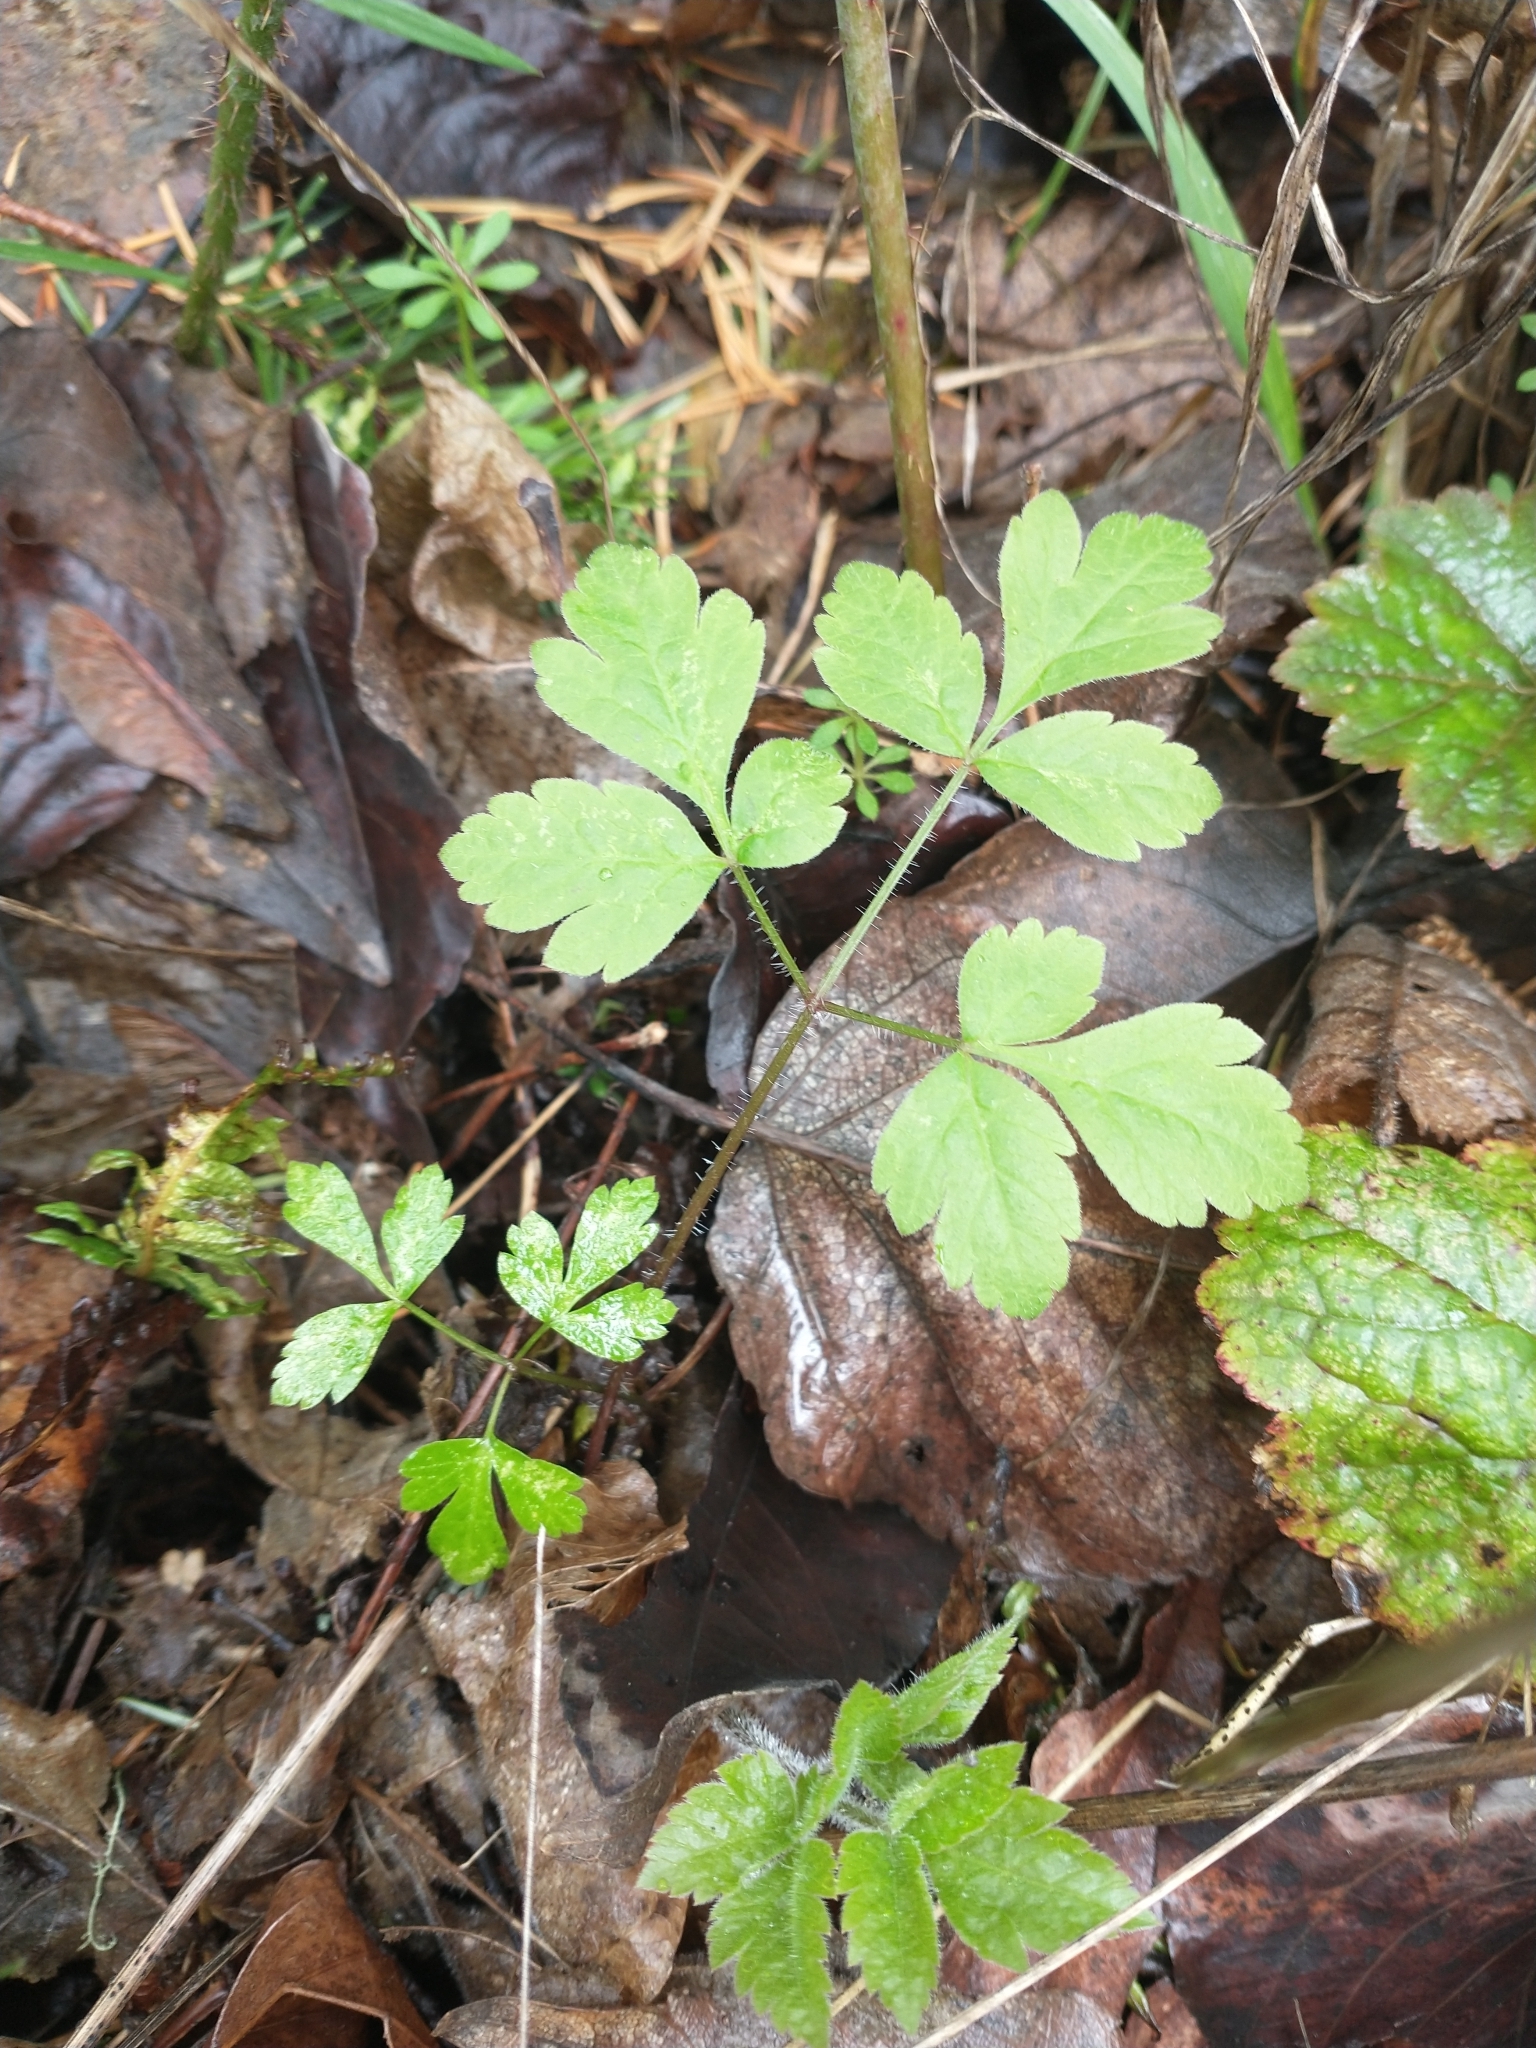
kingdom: Plantae
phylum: Tracheophyta
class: Magnoliopsida
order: Apiales
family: Apiaceae
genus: Osmorhiza
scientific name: Osmorhiza berteroi
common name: Mountain sweet cicely
